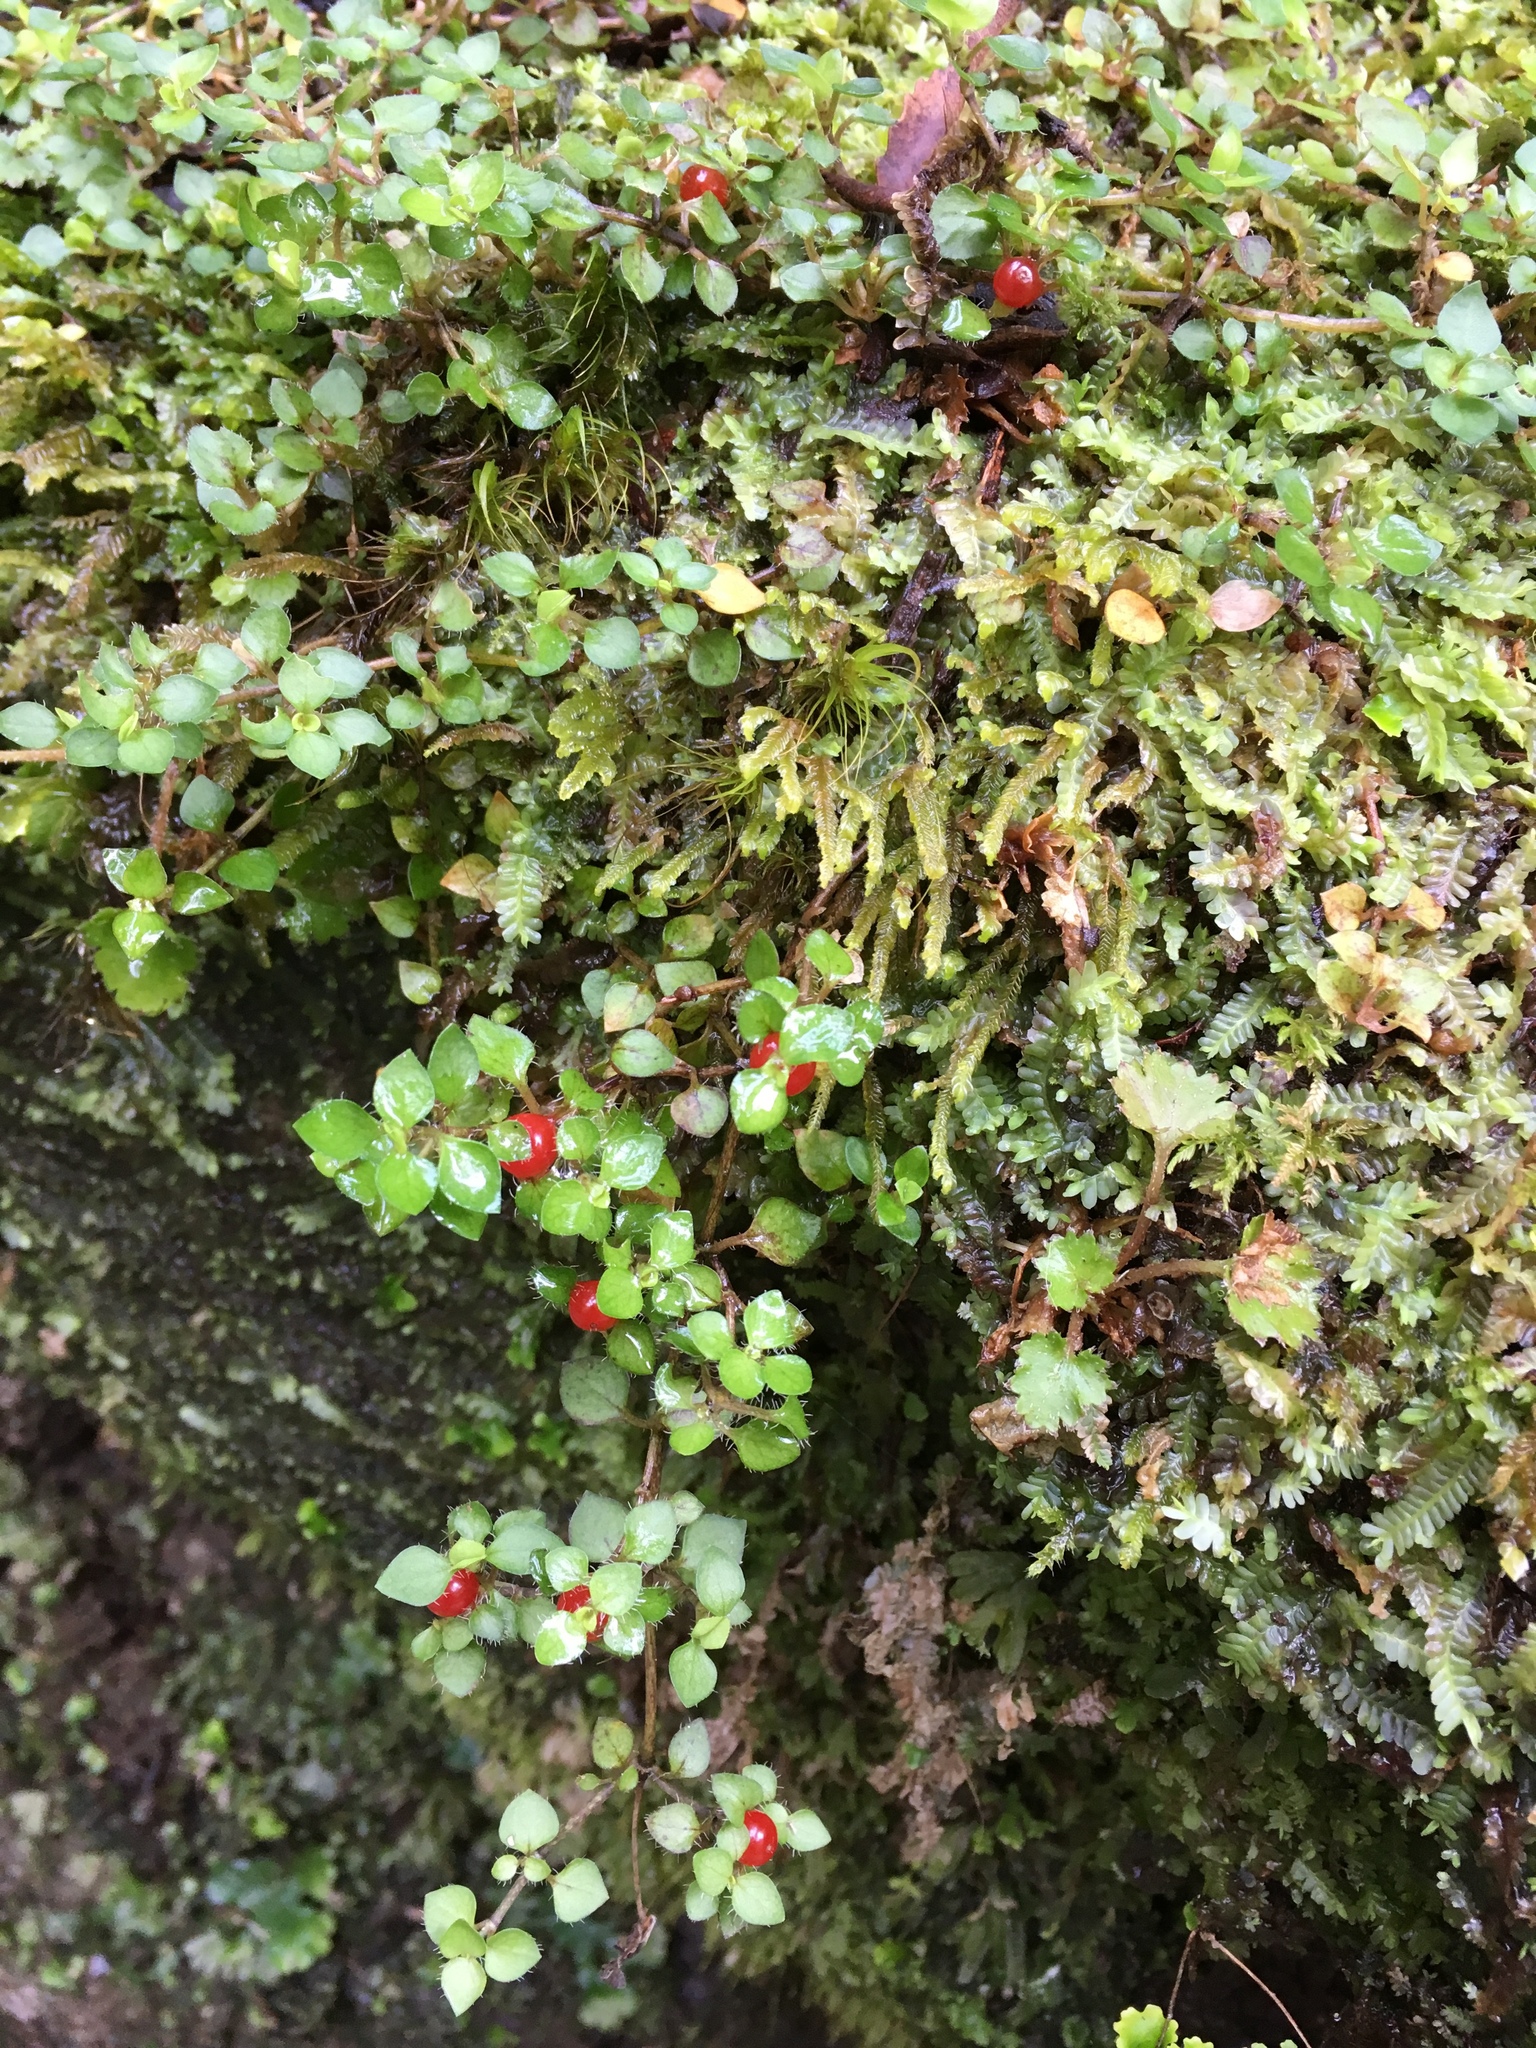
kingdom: Plantae
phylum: Tracheophyta
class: Magnoliopsida
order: Gentianales
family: Rubiaceae
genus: Nertera
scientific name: Nertera ciliata
